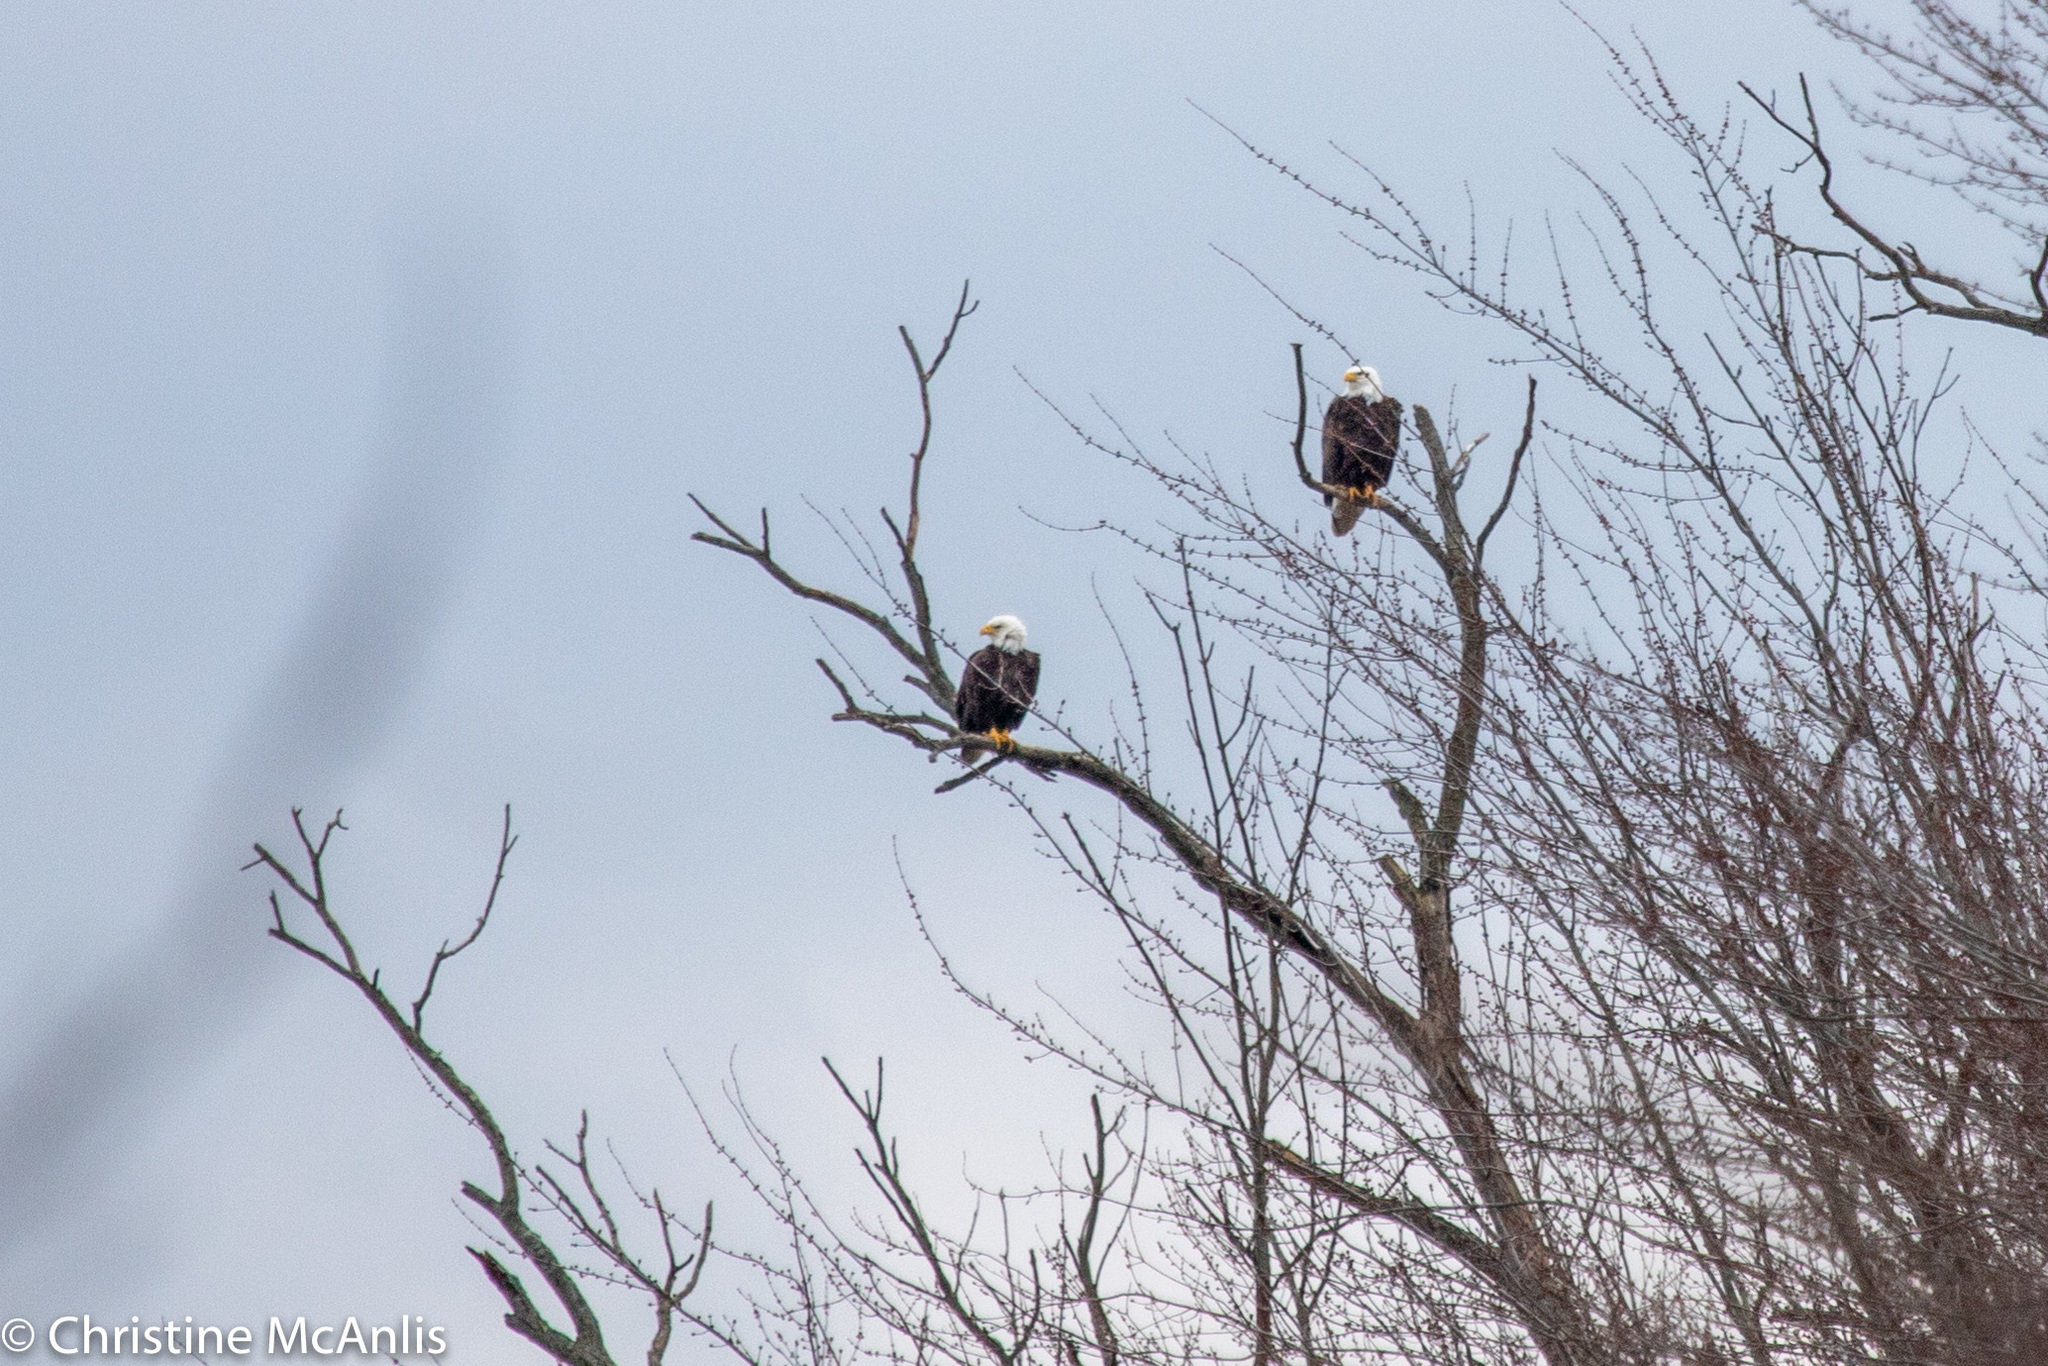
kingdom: Animalia
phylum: Chordata
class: Aves
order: Accipitriformes
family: Accipitridae
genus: Haliaeetus
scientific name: Haliaeetus leucocephalus
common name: Bald eagle
